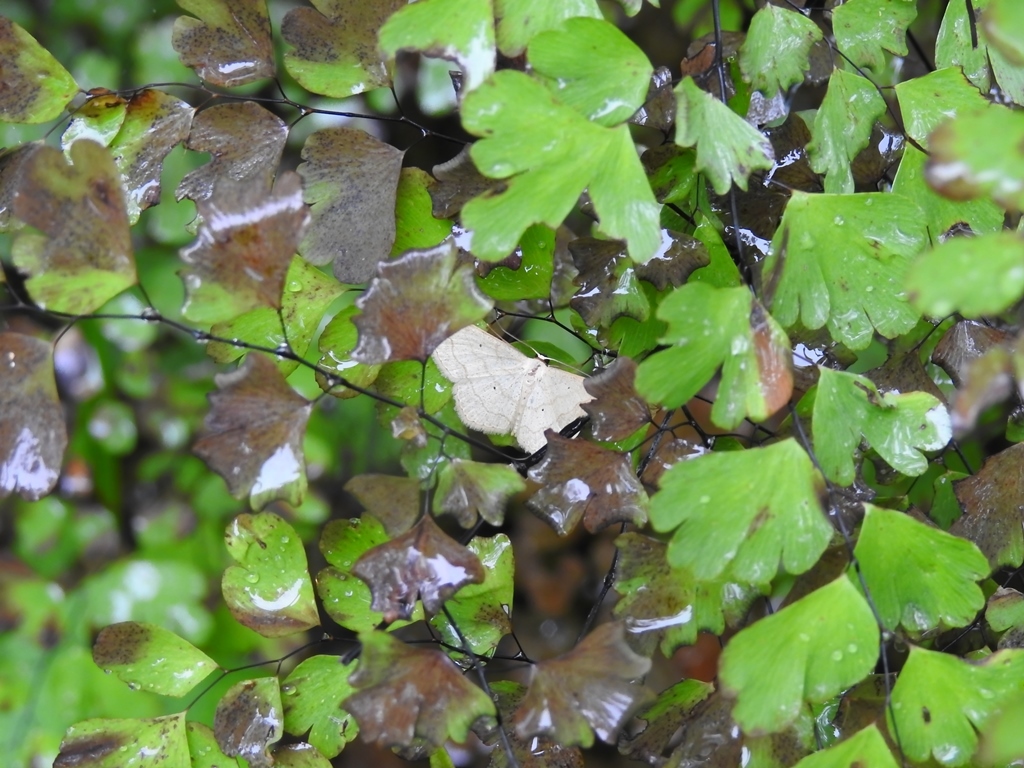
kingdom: Animalia
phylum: Arthropoda
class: Insecta
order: Lepidoptera
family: Geometridae
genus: Scopula
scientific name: Scopula umbilicata
